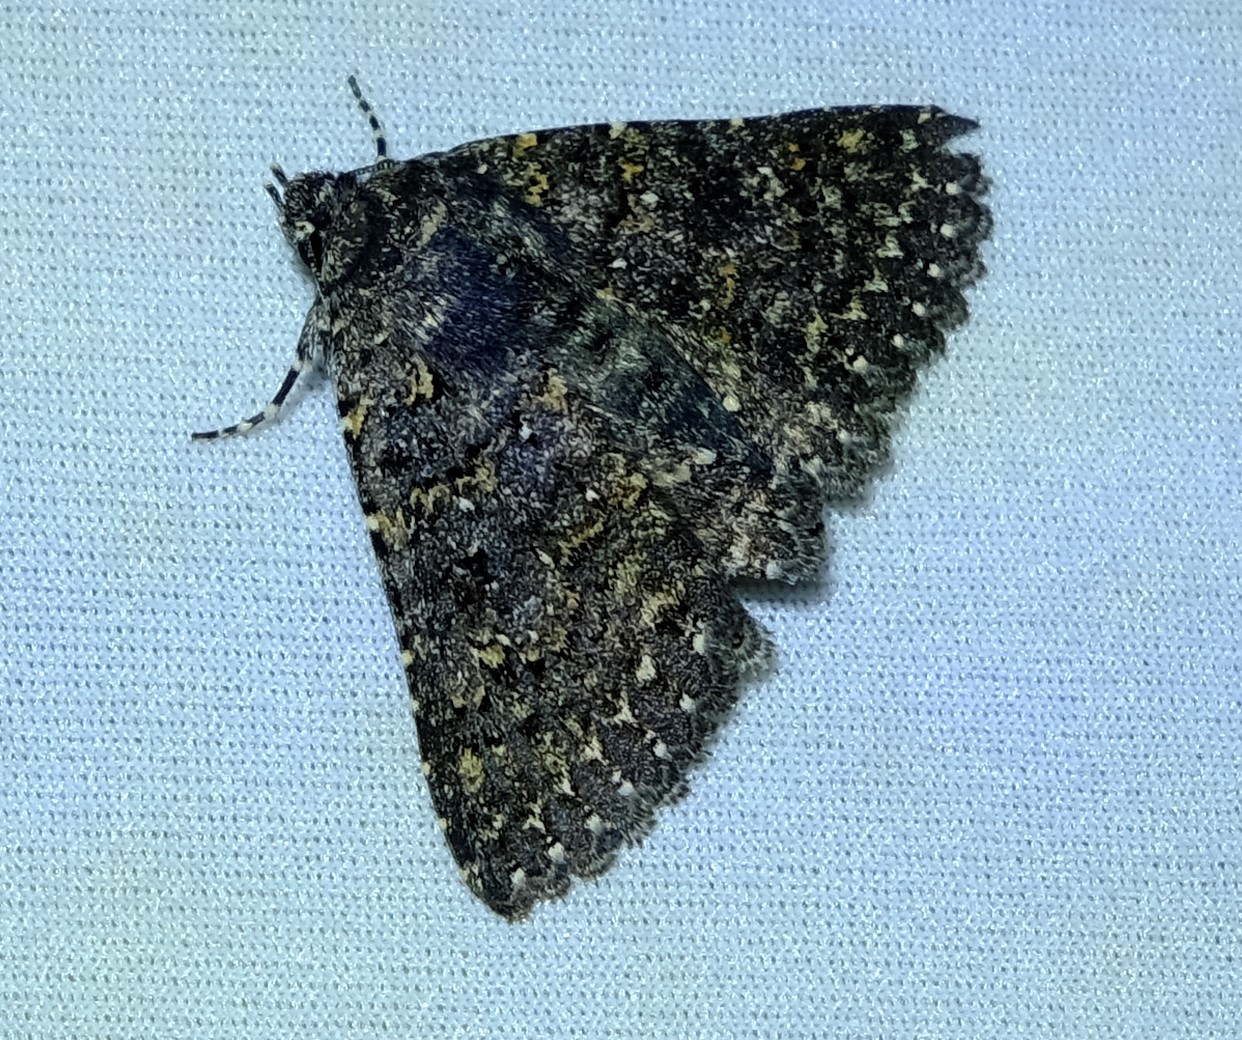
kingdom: Animalia
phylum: Arthropoda
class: Insecta
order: Lepidoptera
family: Erebidae
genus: Praxis
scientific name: Praxis edwardsii
